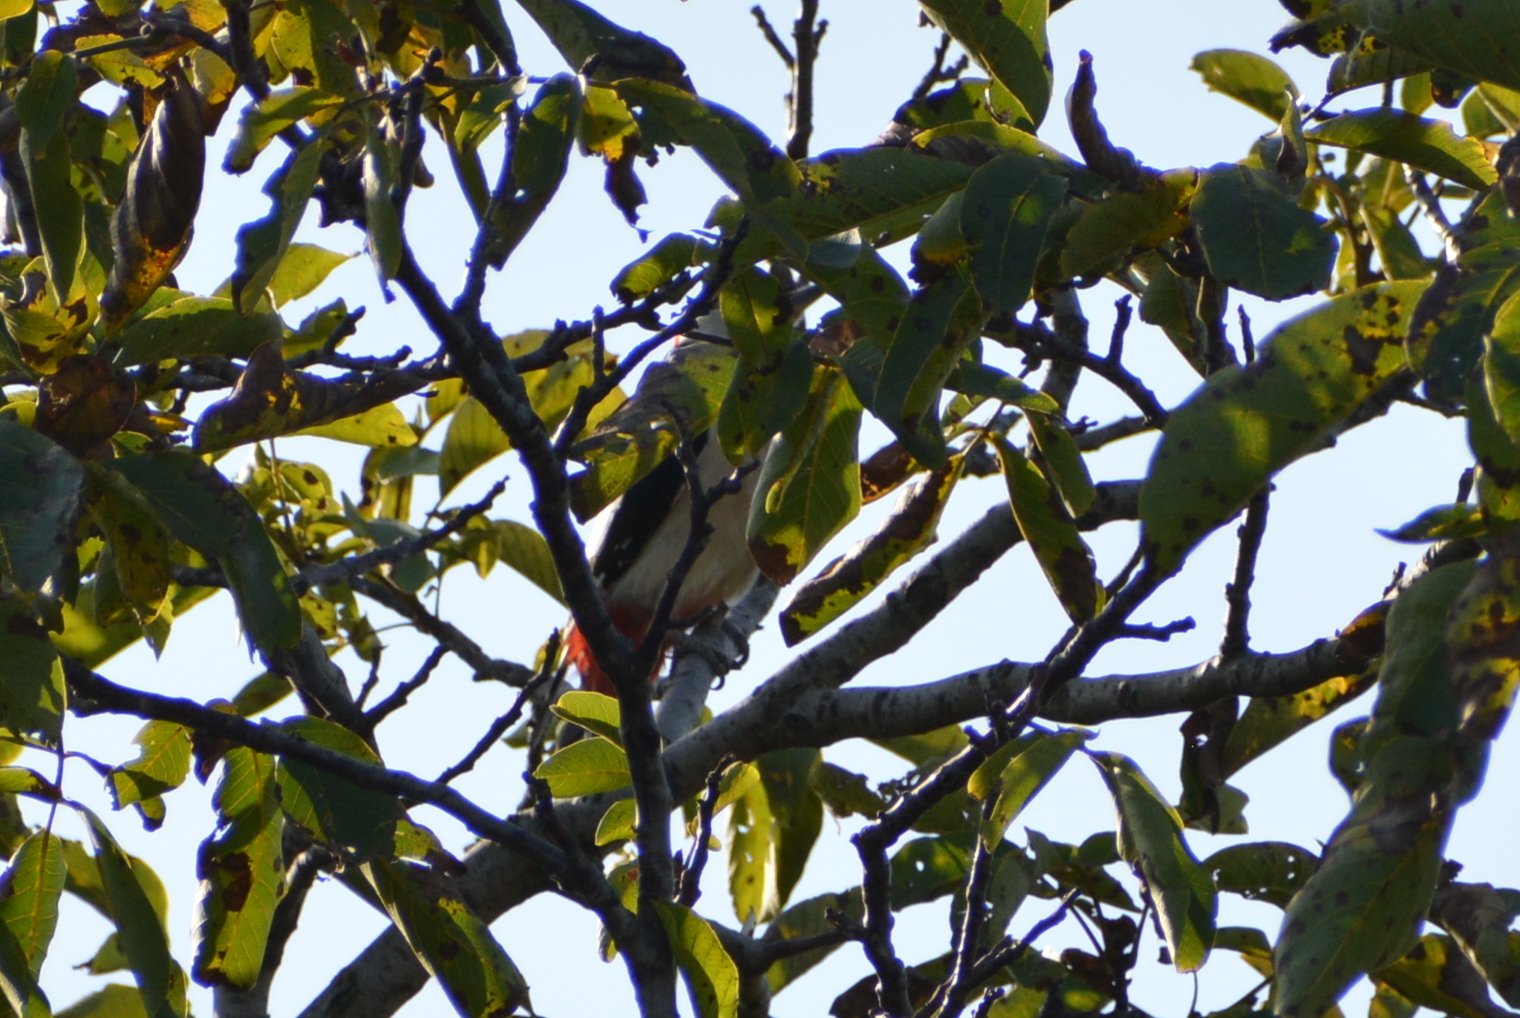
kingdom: Animalia
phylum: Chordata
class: Aves
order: Piciformes
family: Picidae
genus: Dendrocopos
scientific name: Dendrocopos major
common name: Great spotted woodpecker
